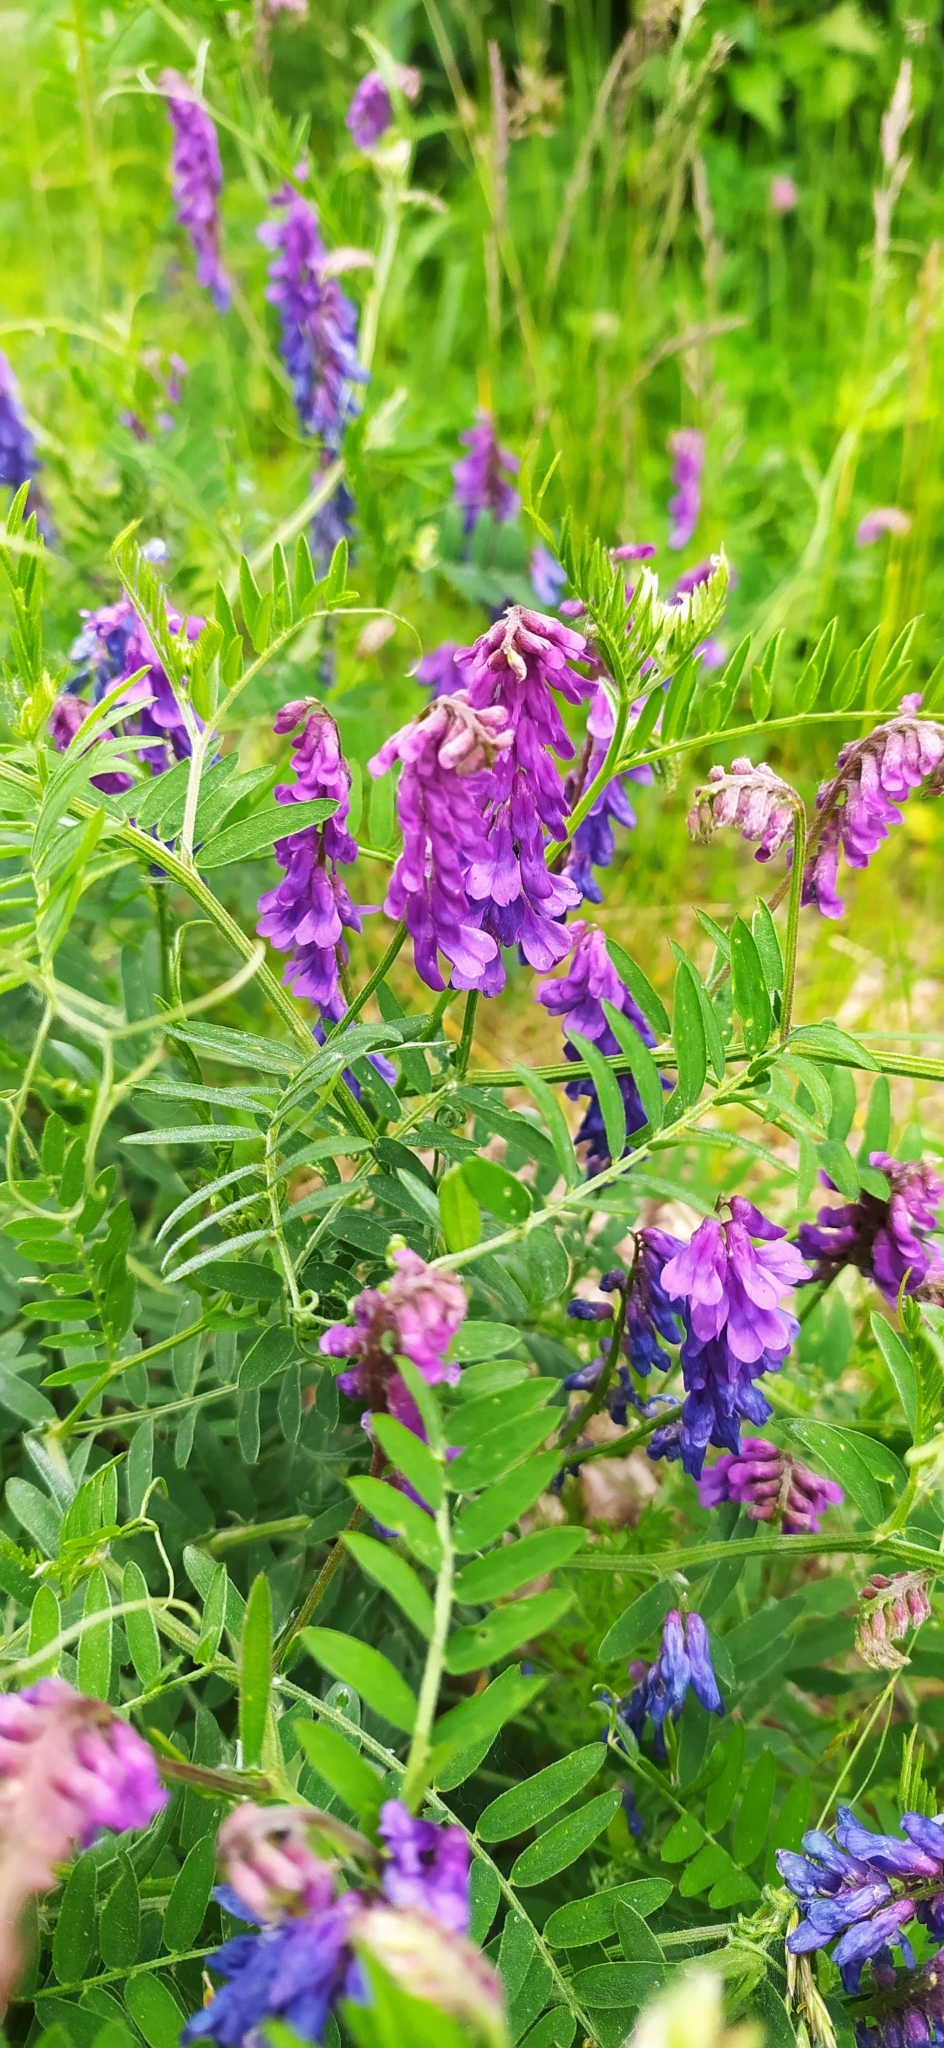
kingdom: Plantae
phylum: Tracheophyta
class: Magnoliopsida
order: Fabales
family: Fabaceae
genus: Vicia
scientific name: Vicia cracca
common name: Bird vetch
